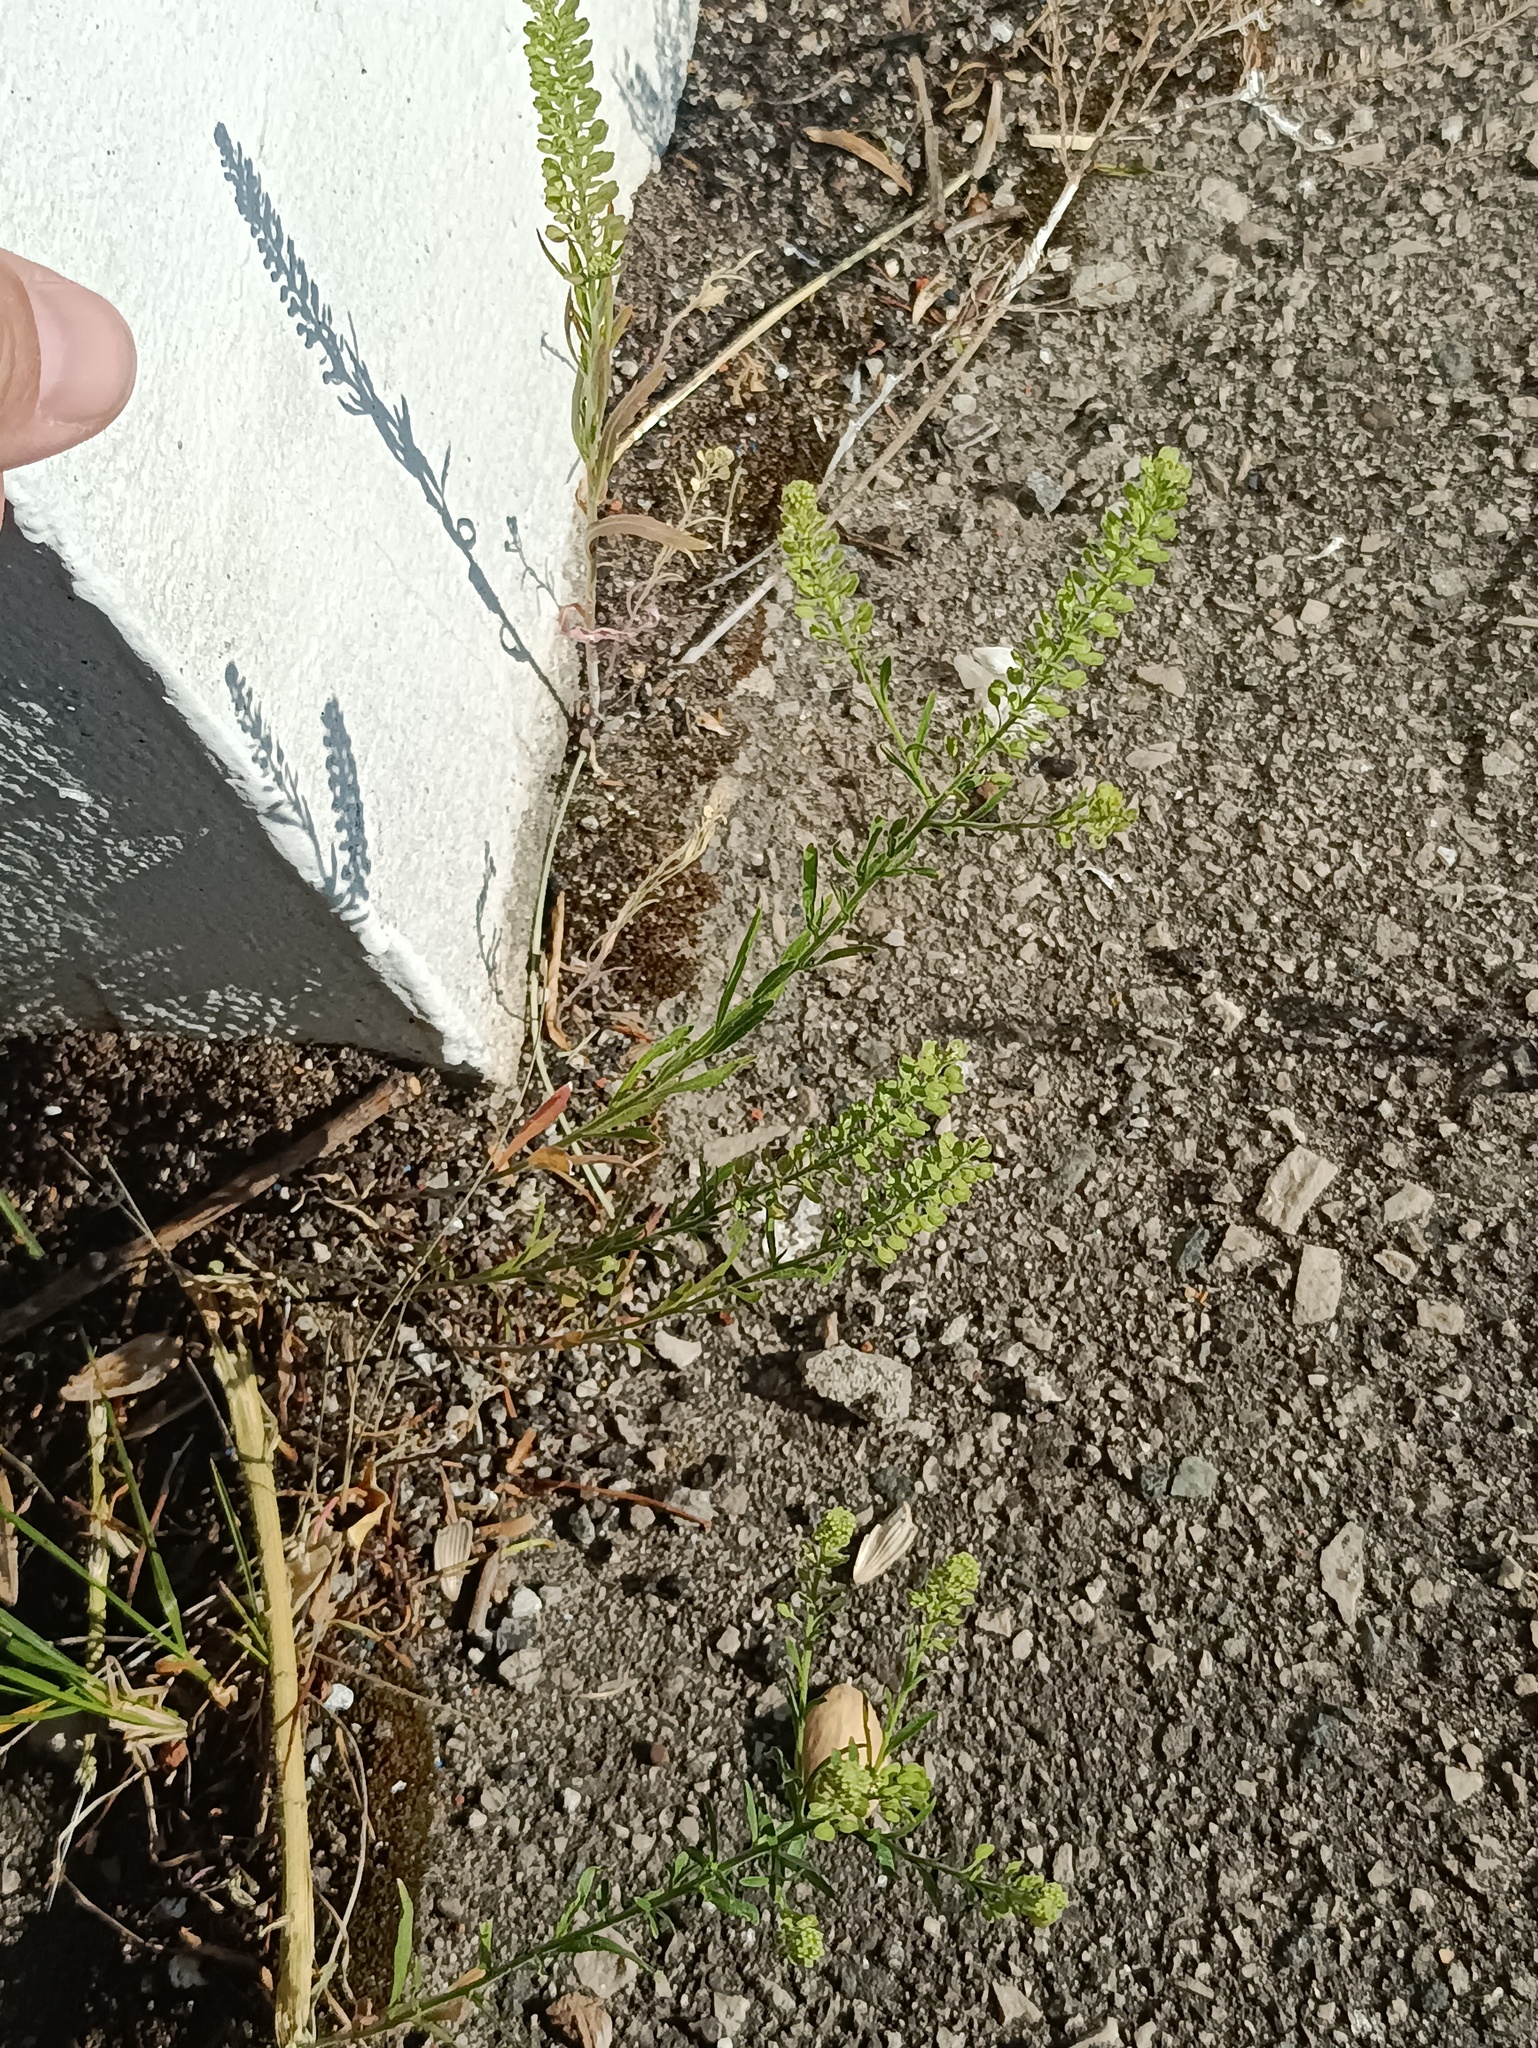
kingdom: Plantae
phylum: Tracheophyta
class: Magnoliopsida
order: Brassicales
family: Brassicaceae
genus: Lepidium
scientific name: Lepidium densiflorum
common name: Miner's pepperwort
